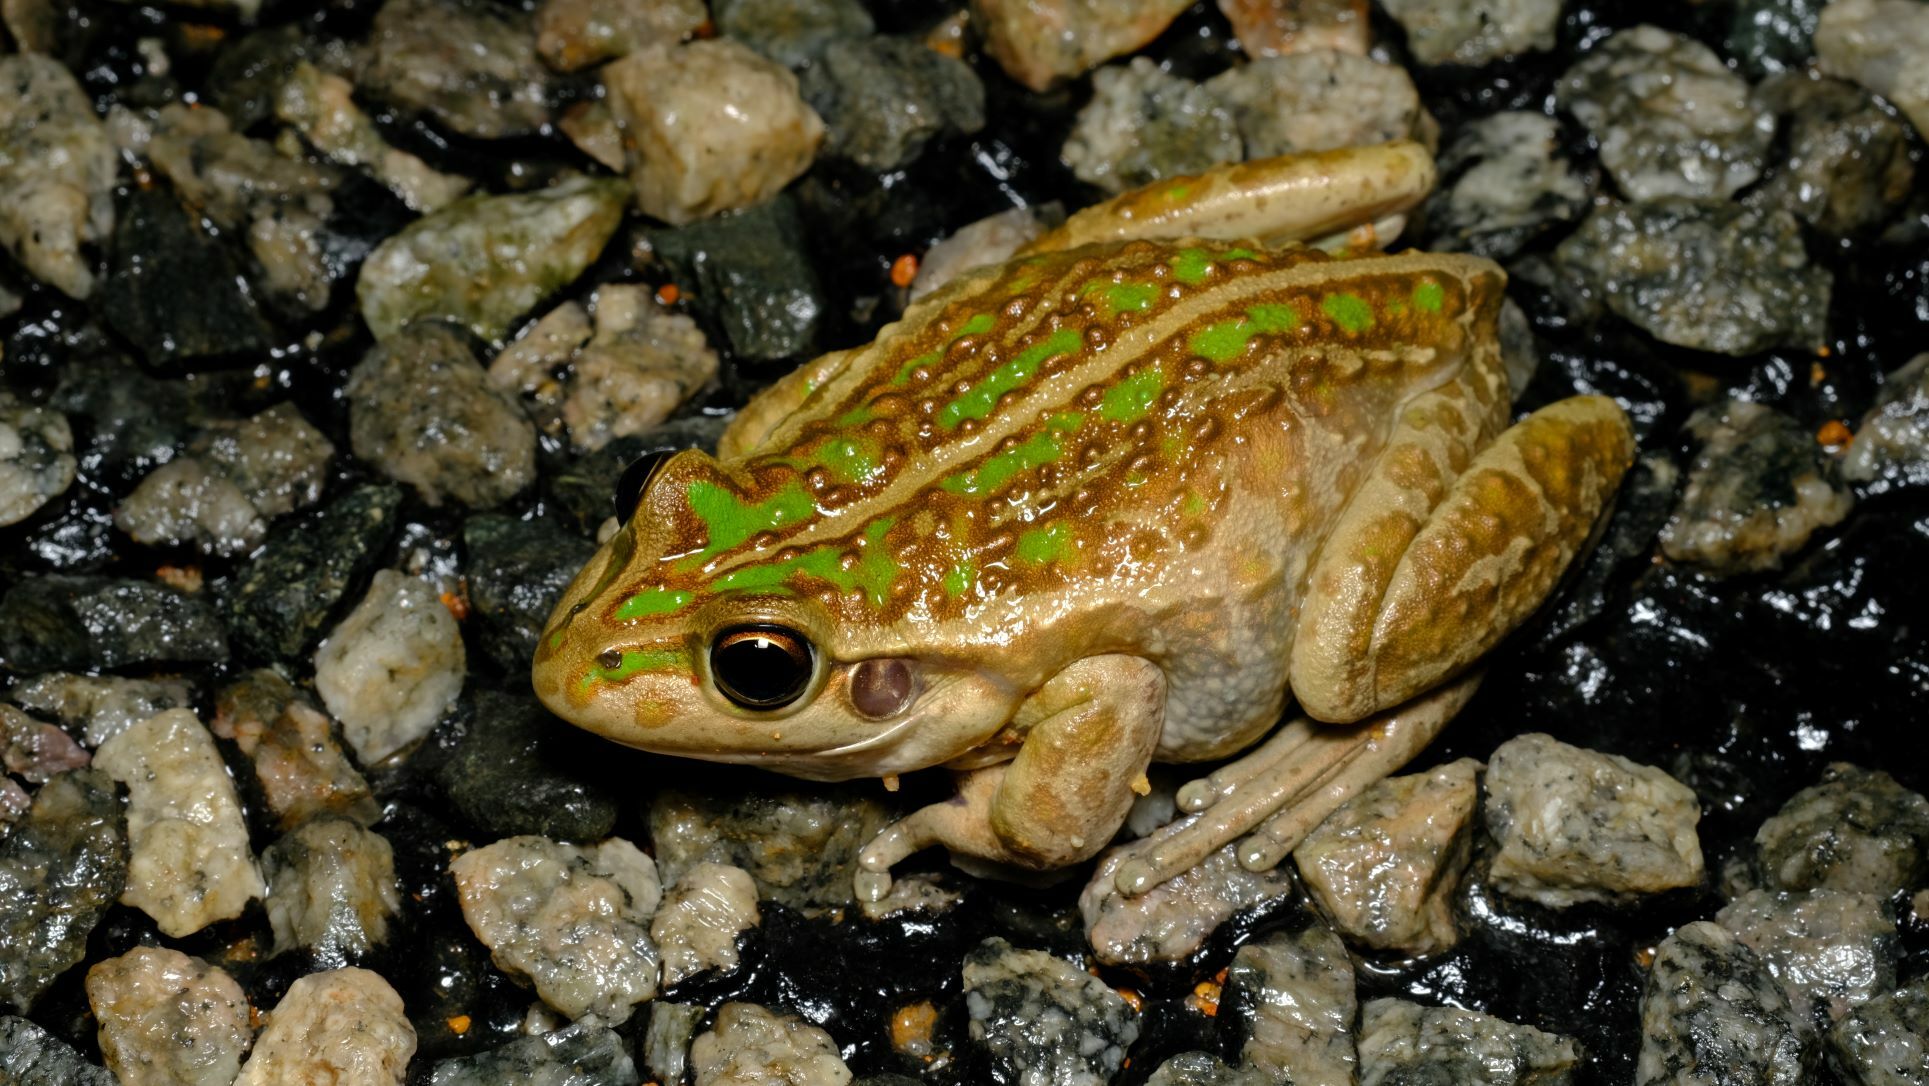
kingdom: Animalia
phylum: Chordata
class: Amphibia
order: Anura
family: Pelodryadidae
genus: Ranoidea
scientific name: Ranoidea moorei
